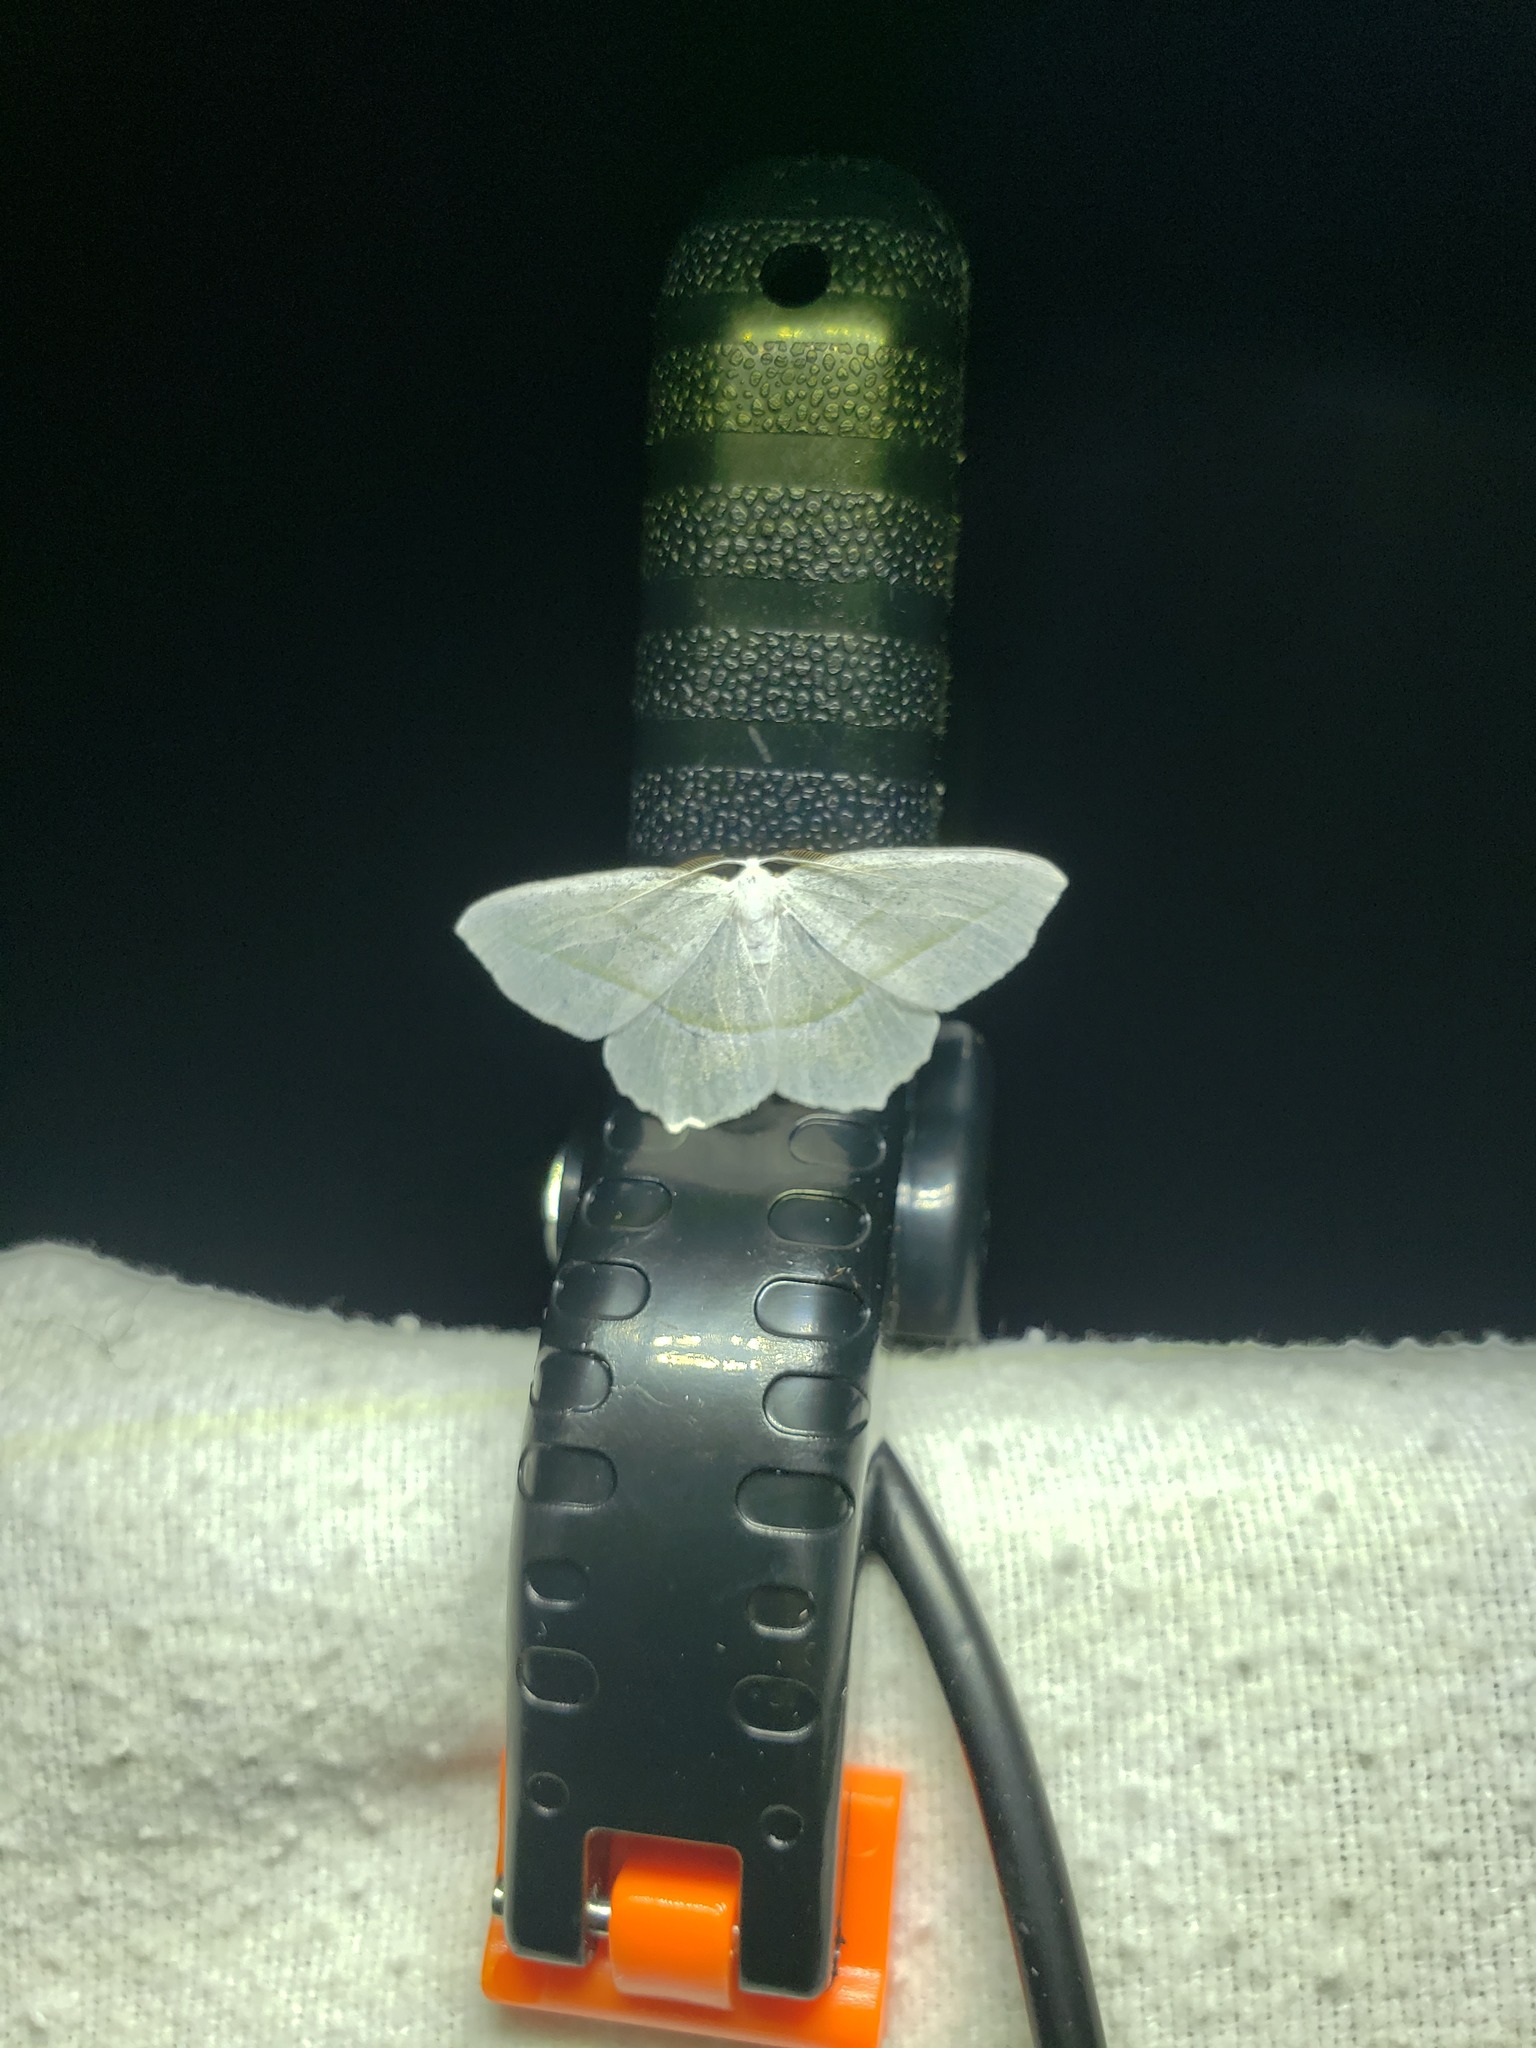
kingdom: Animalia
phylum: Arthropoda
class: Insecta
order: Lepidoptera
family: Geometridae
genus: Campaea
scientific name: Campaea perlata
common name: Fringed looper
